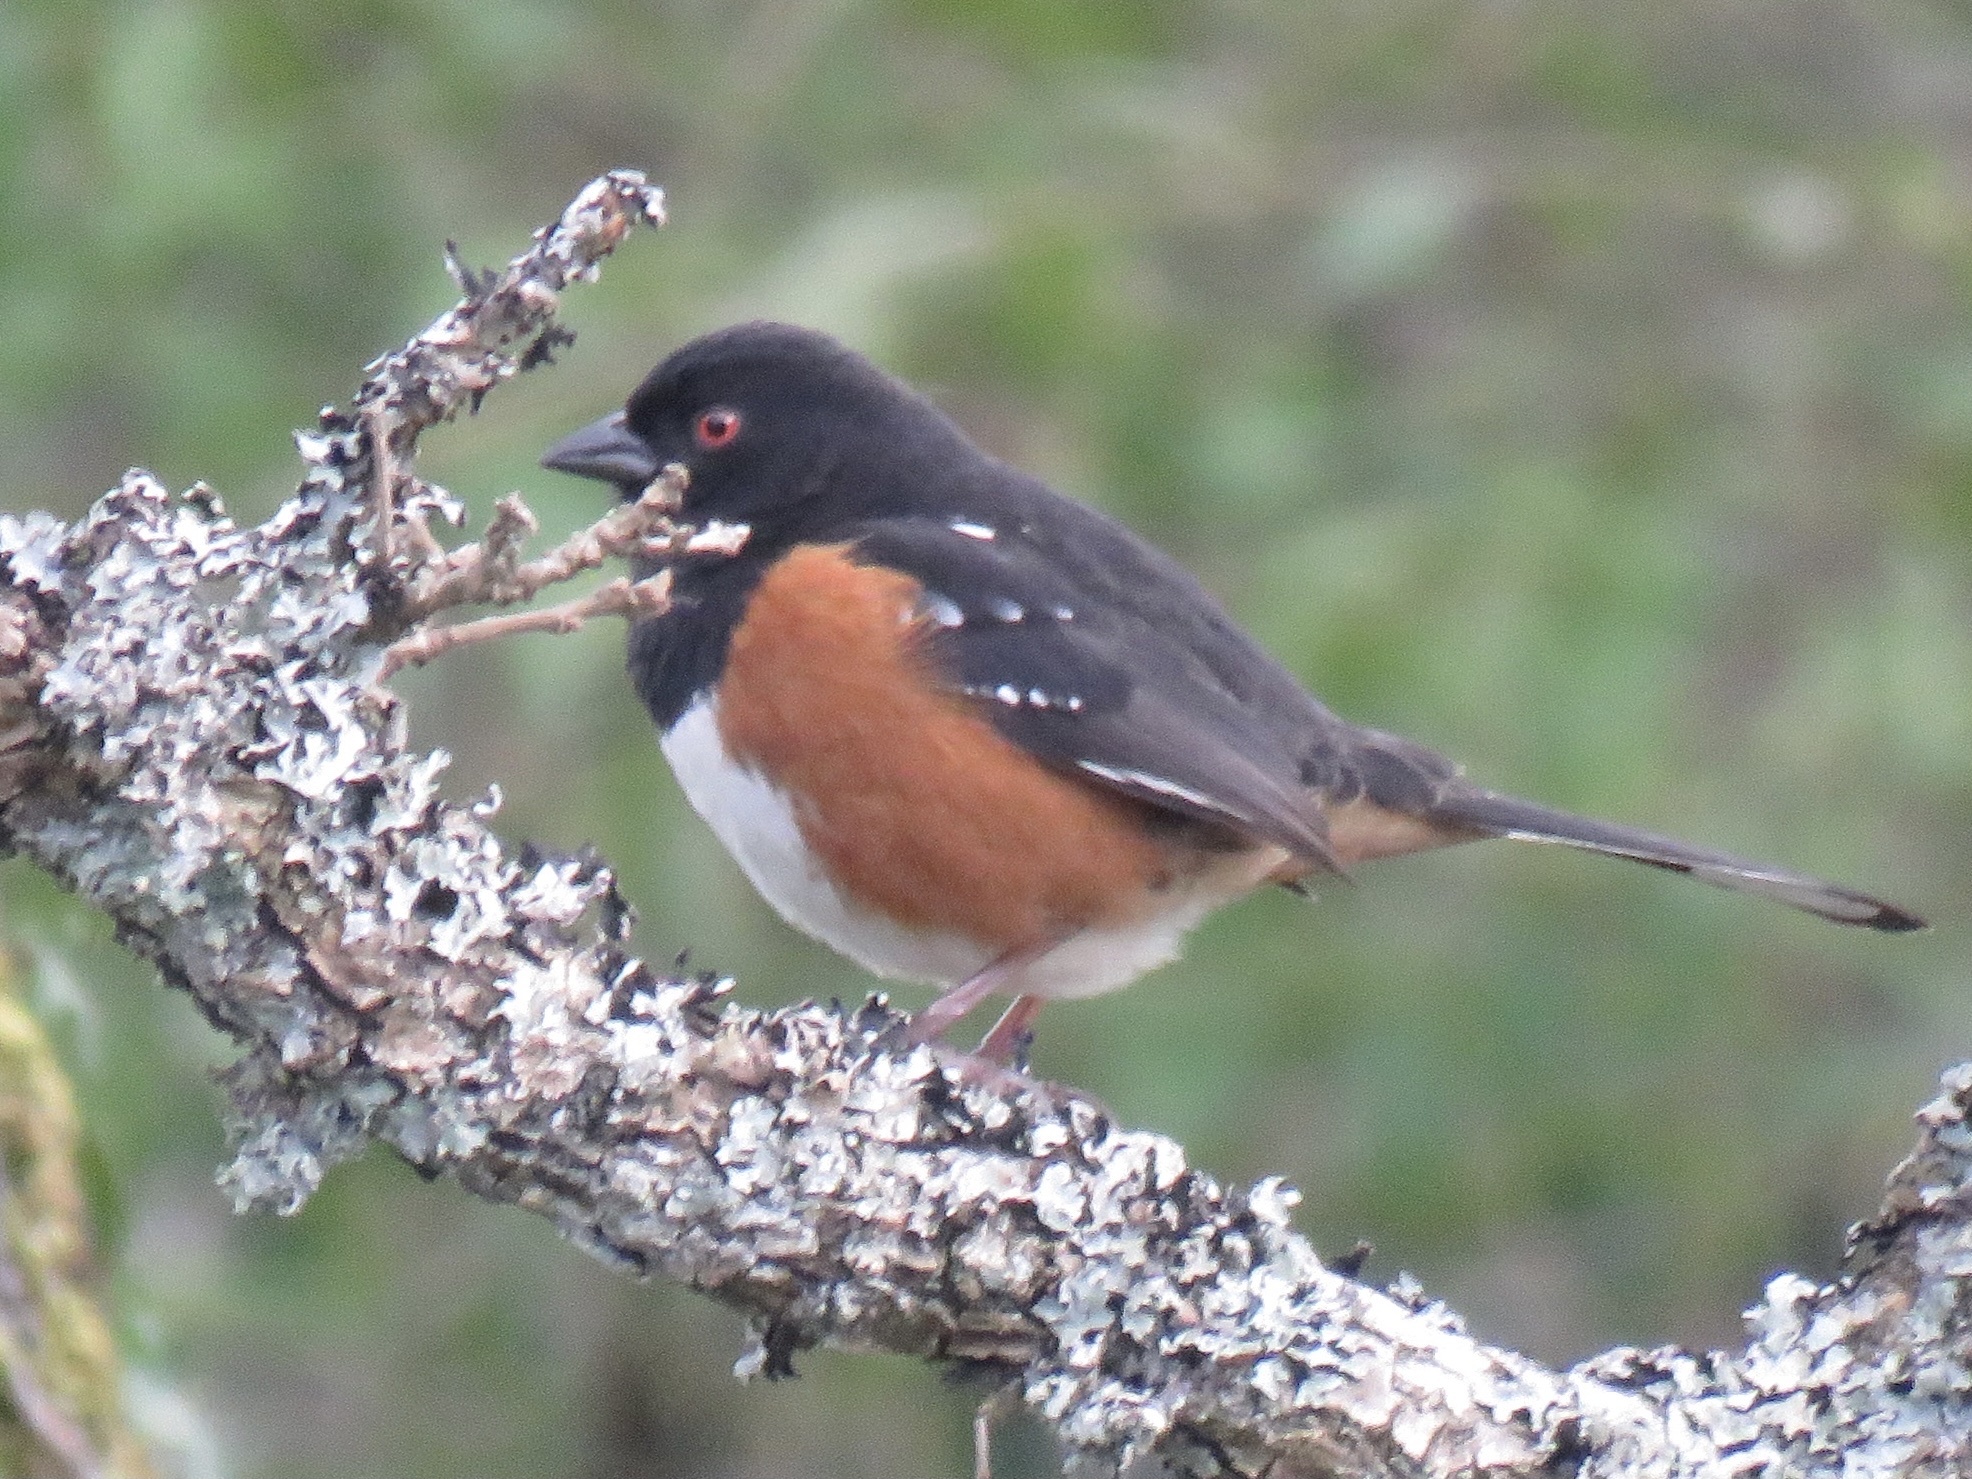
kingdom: Animalia
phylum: Chordata
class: Aves
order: Passeriformes
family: Passerellidae
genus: Pipilo
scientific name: Pipilo maculatus
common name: Spotted towhee
